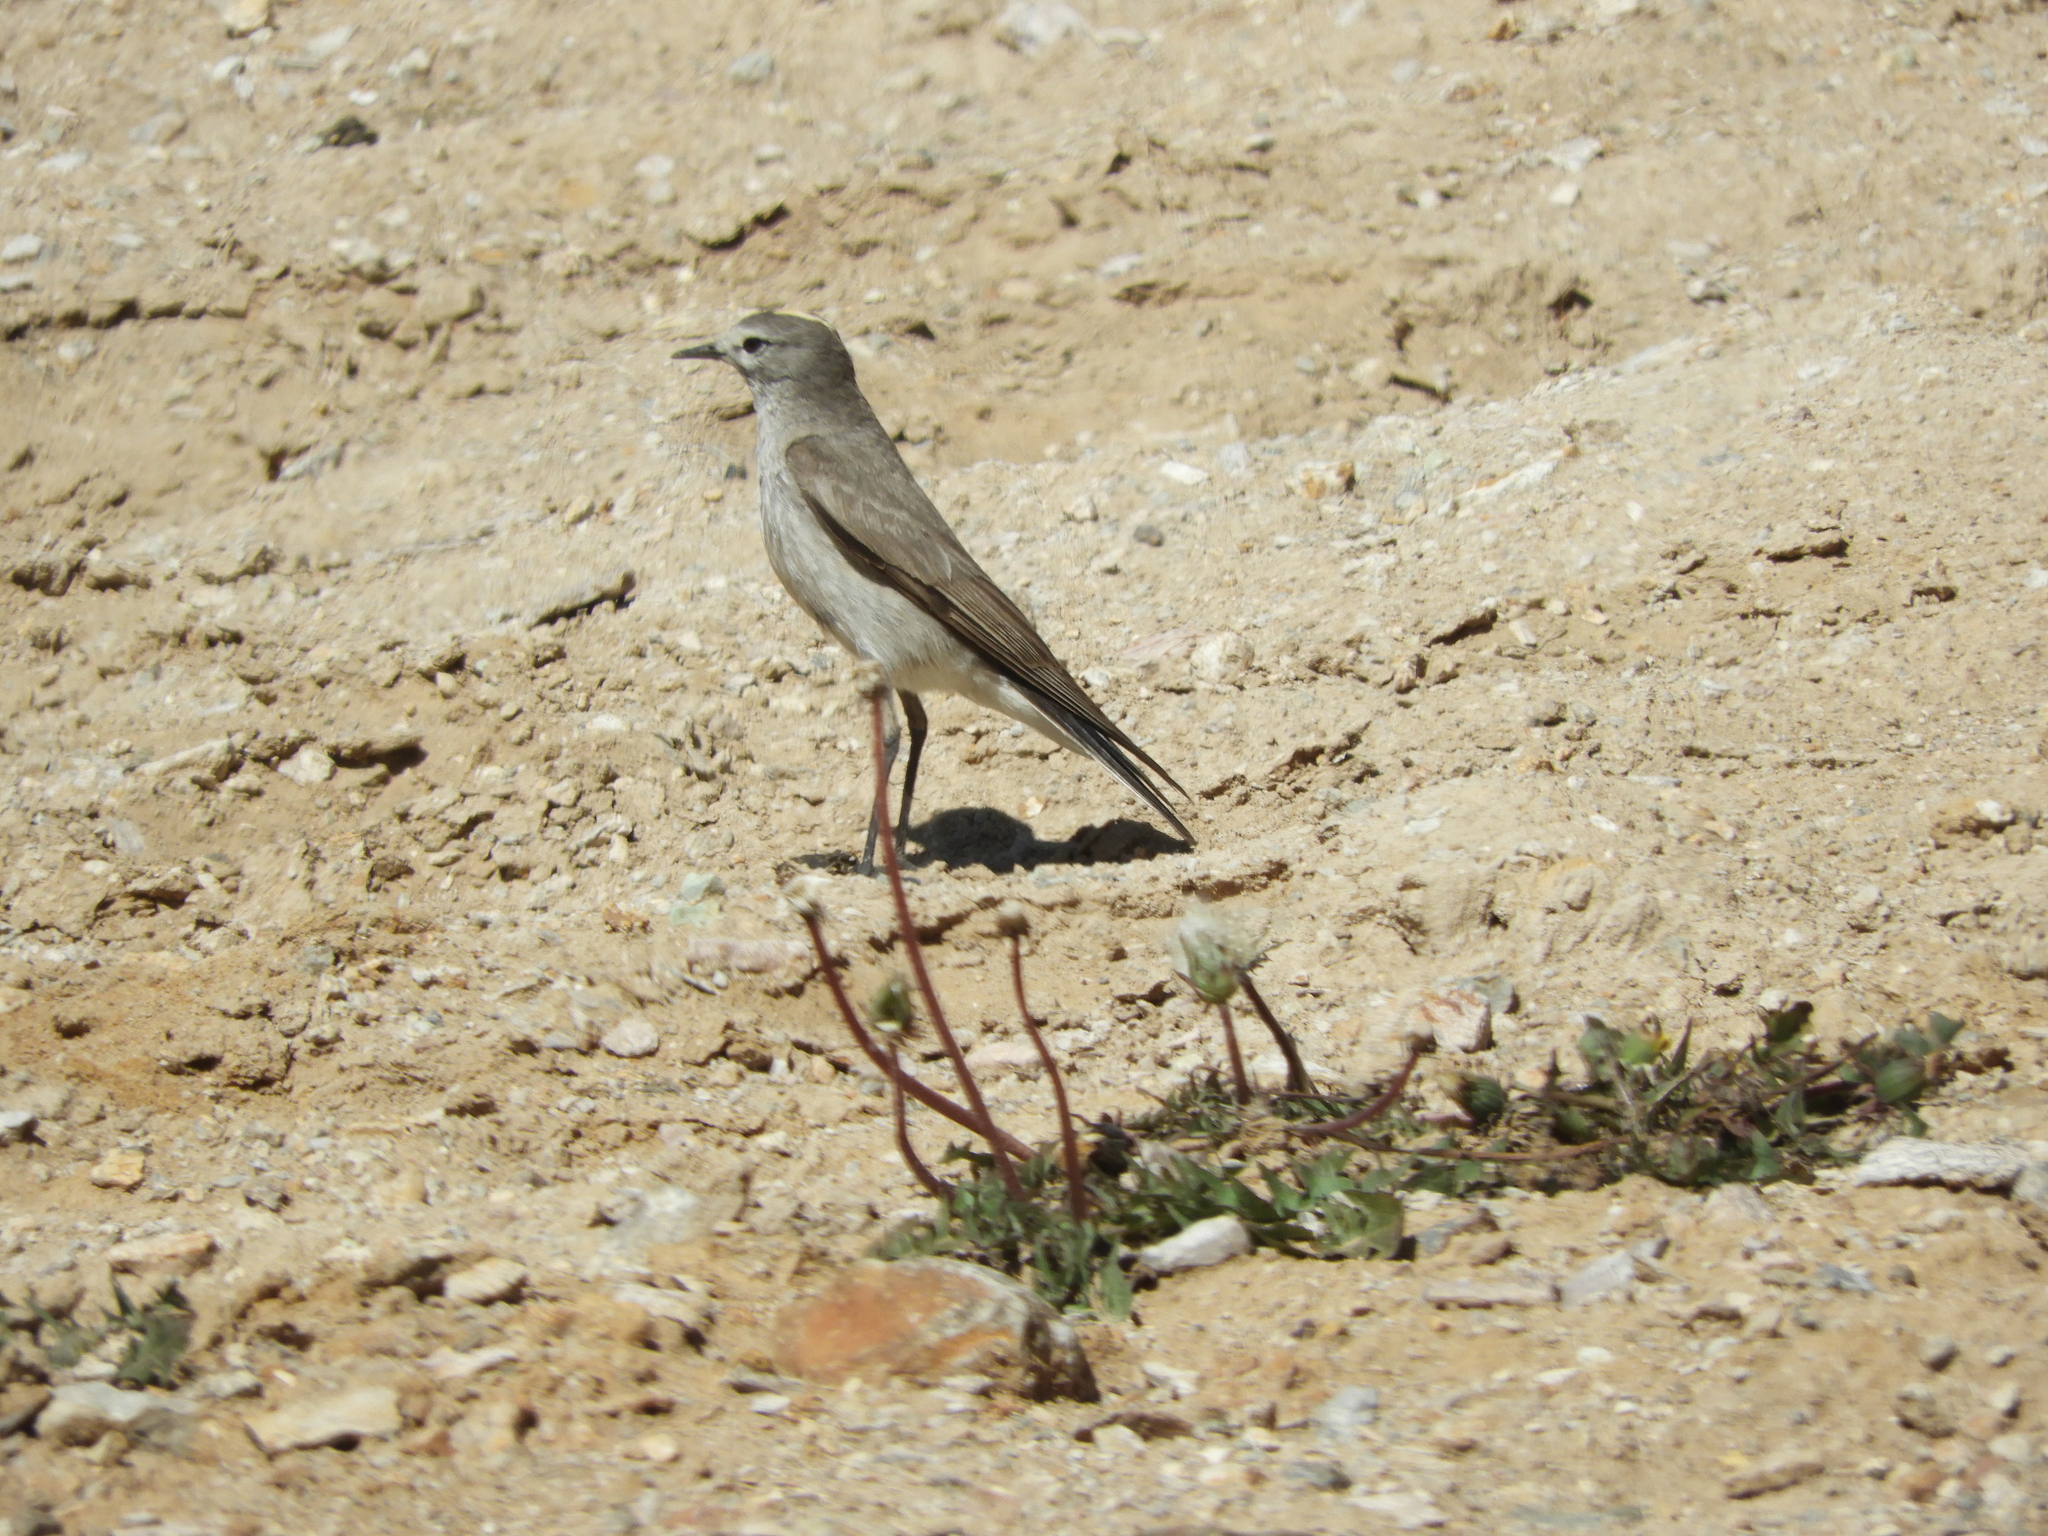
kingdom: Animalia
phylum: Chordata
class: Aves
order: Passeriformes
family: Tyrannidae
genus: Muscisaxicola
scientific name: Muscisaxicola flavinucha
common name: Ochre-naped ground tyrant
